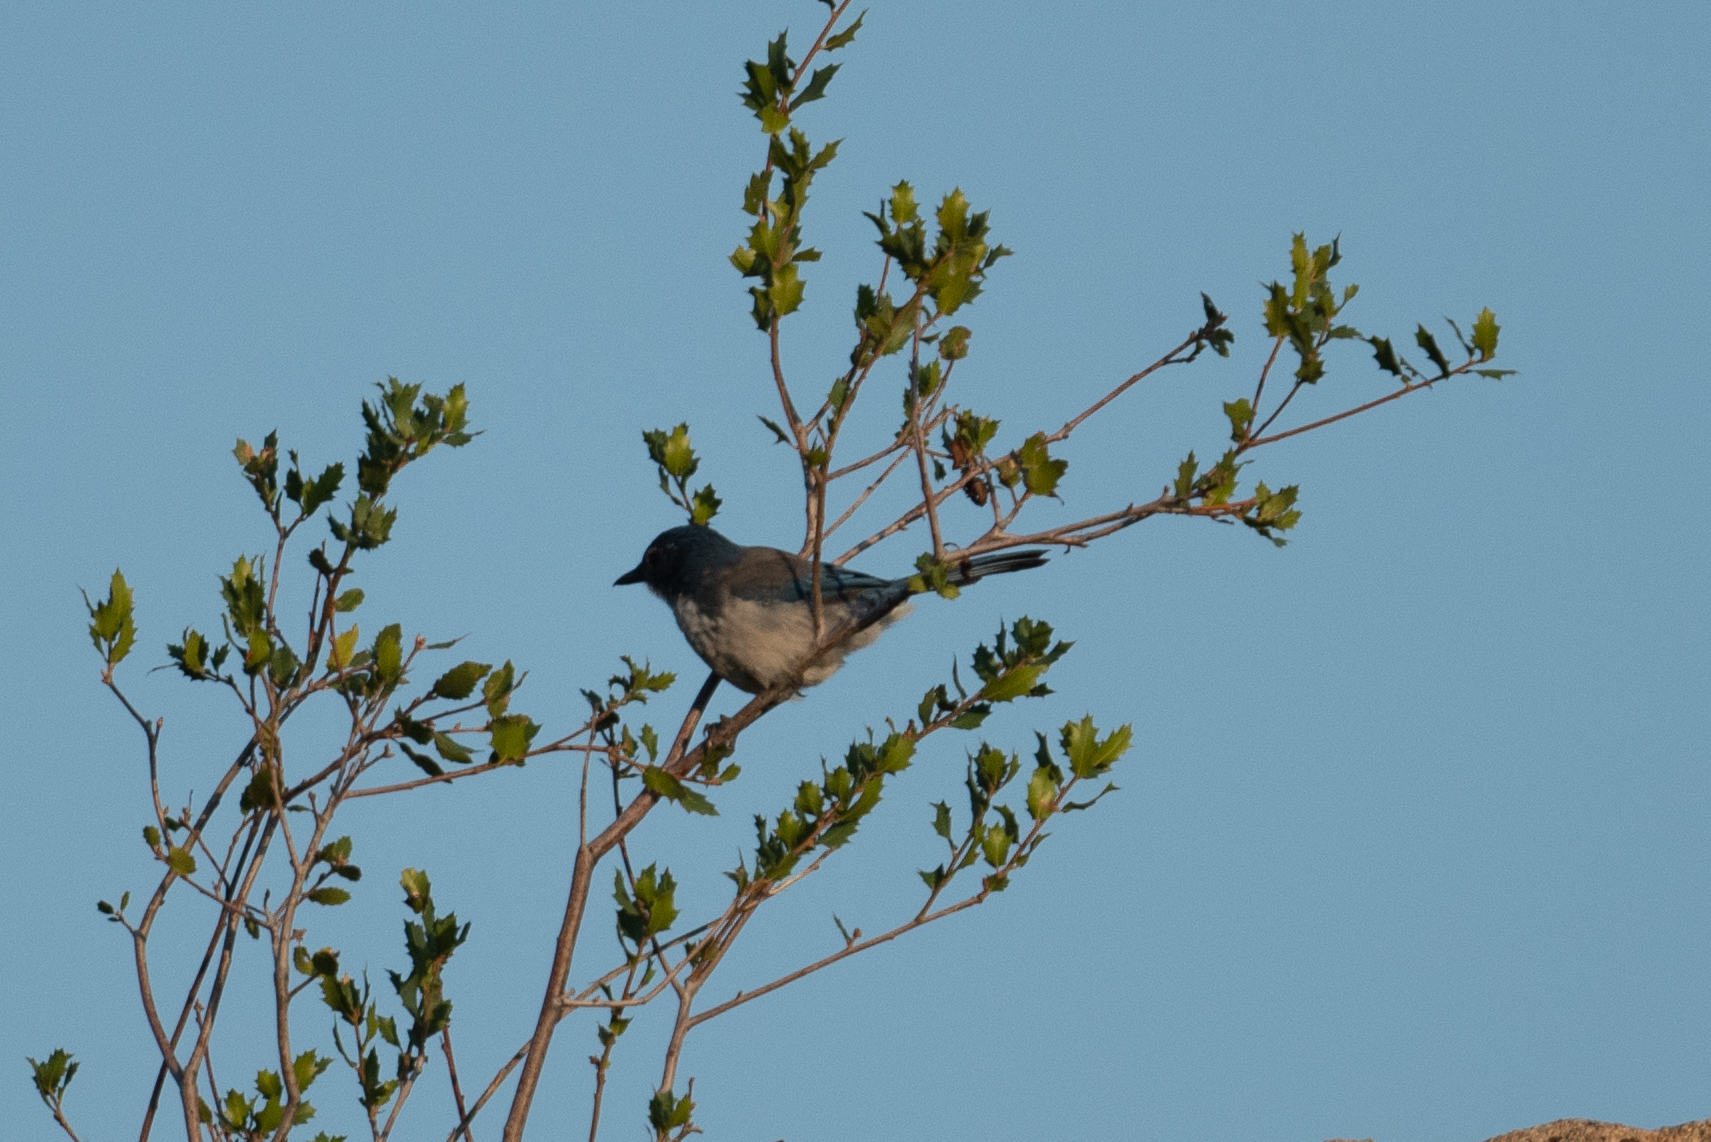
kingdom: Animalia
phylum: Chordata
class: Aves
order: Passeriformes
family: Corvidae
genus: Aphelocoma
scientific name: Aphelocoma californica
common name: California scrub-jay
